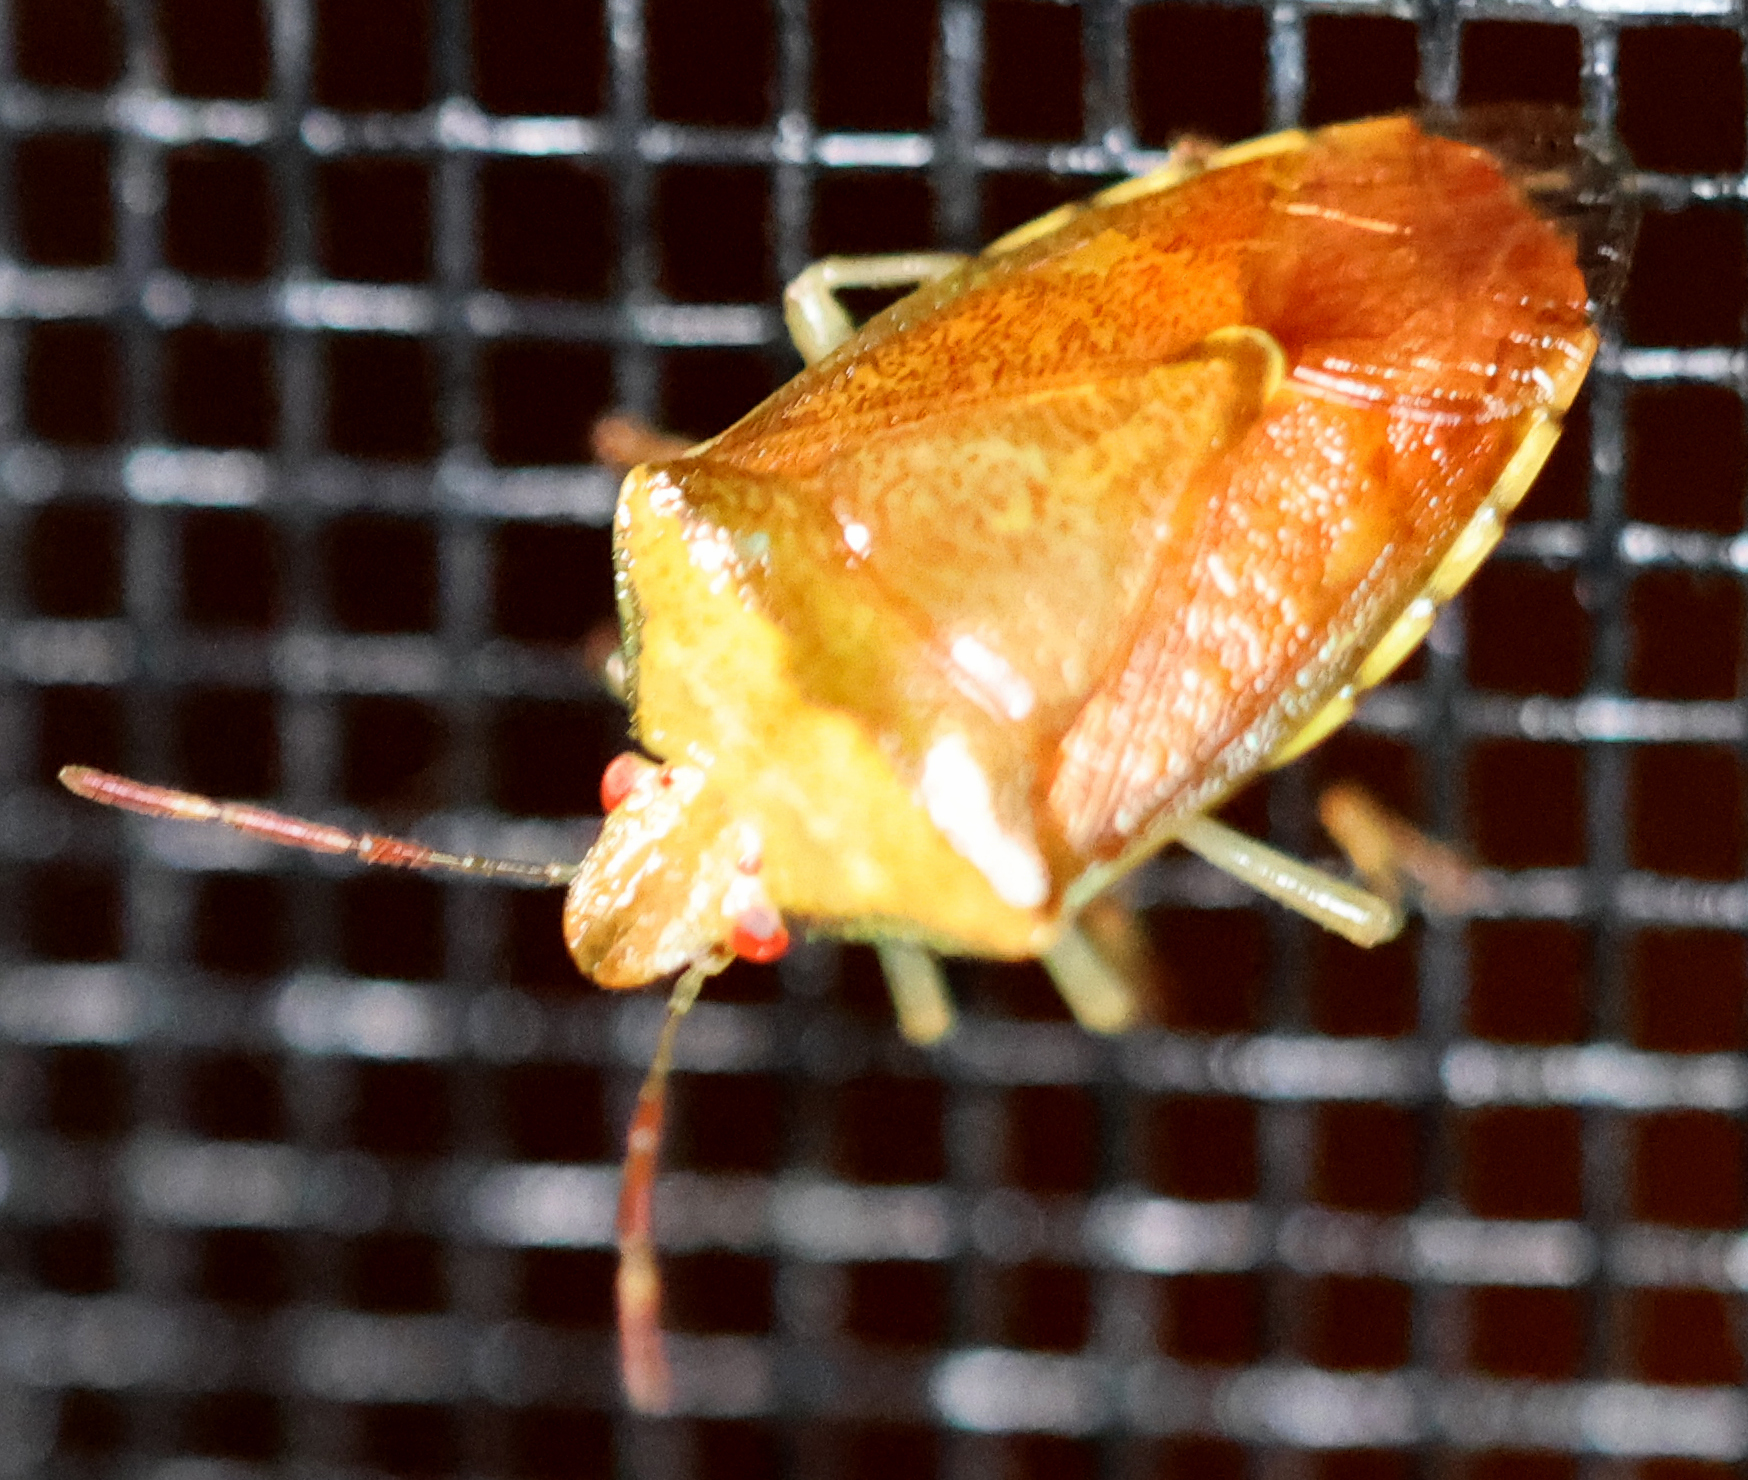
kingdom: Animalia
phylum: Arthropoda
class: Insecta
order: Hemiptera
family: Pentatomidae
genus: Banasa
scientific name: Banasa calva
